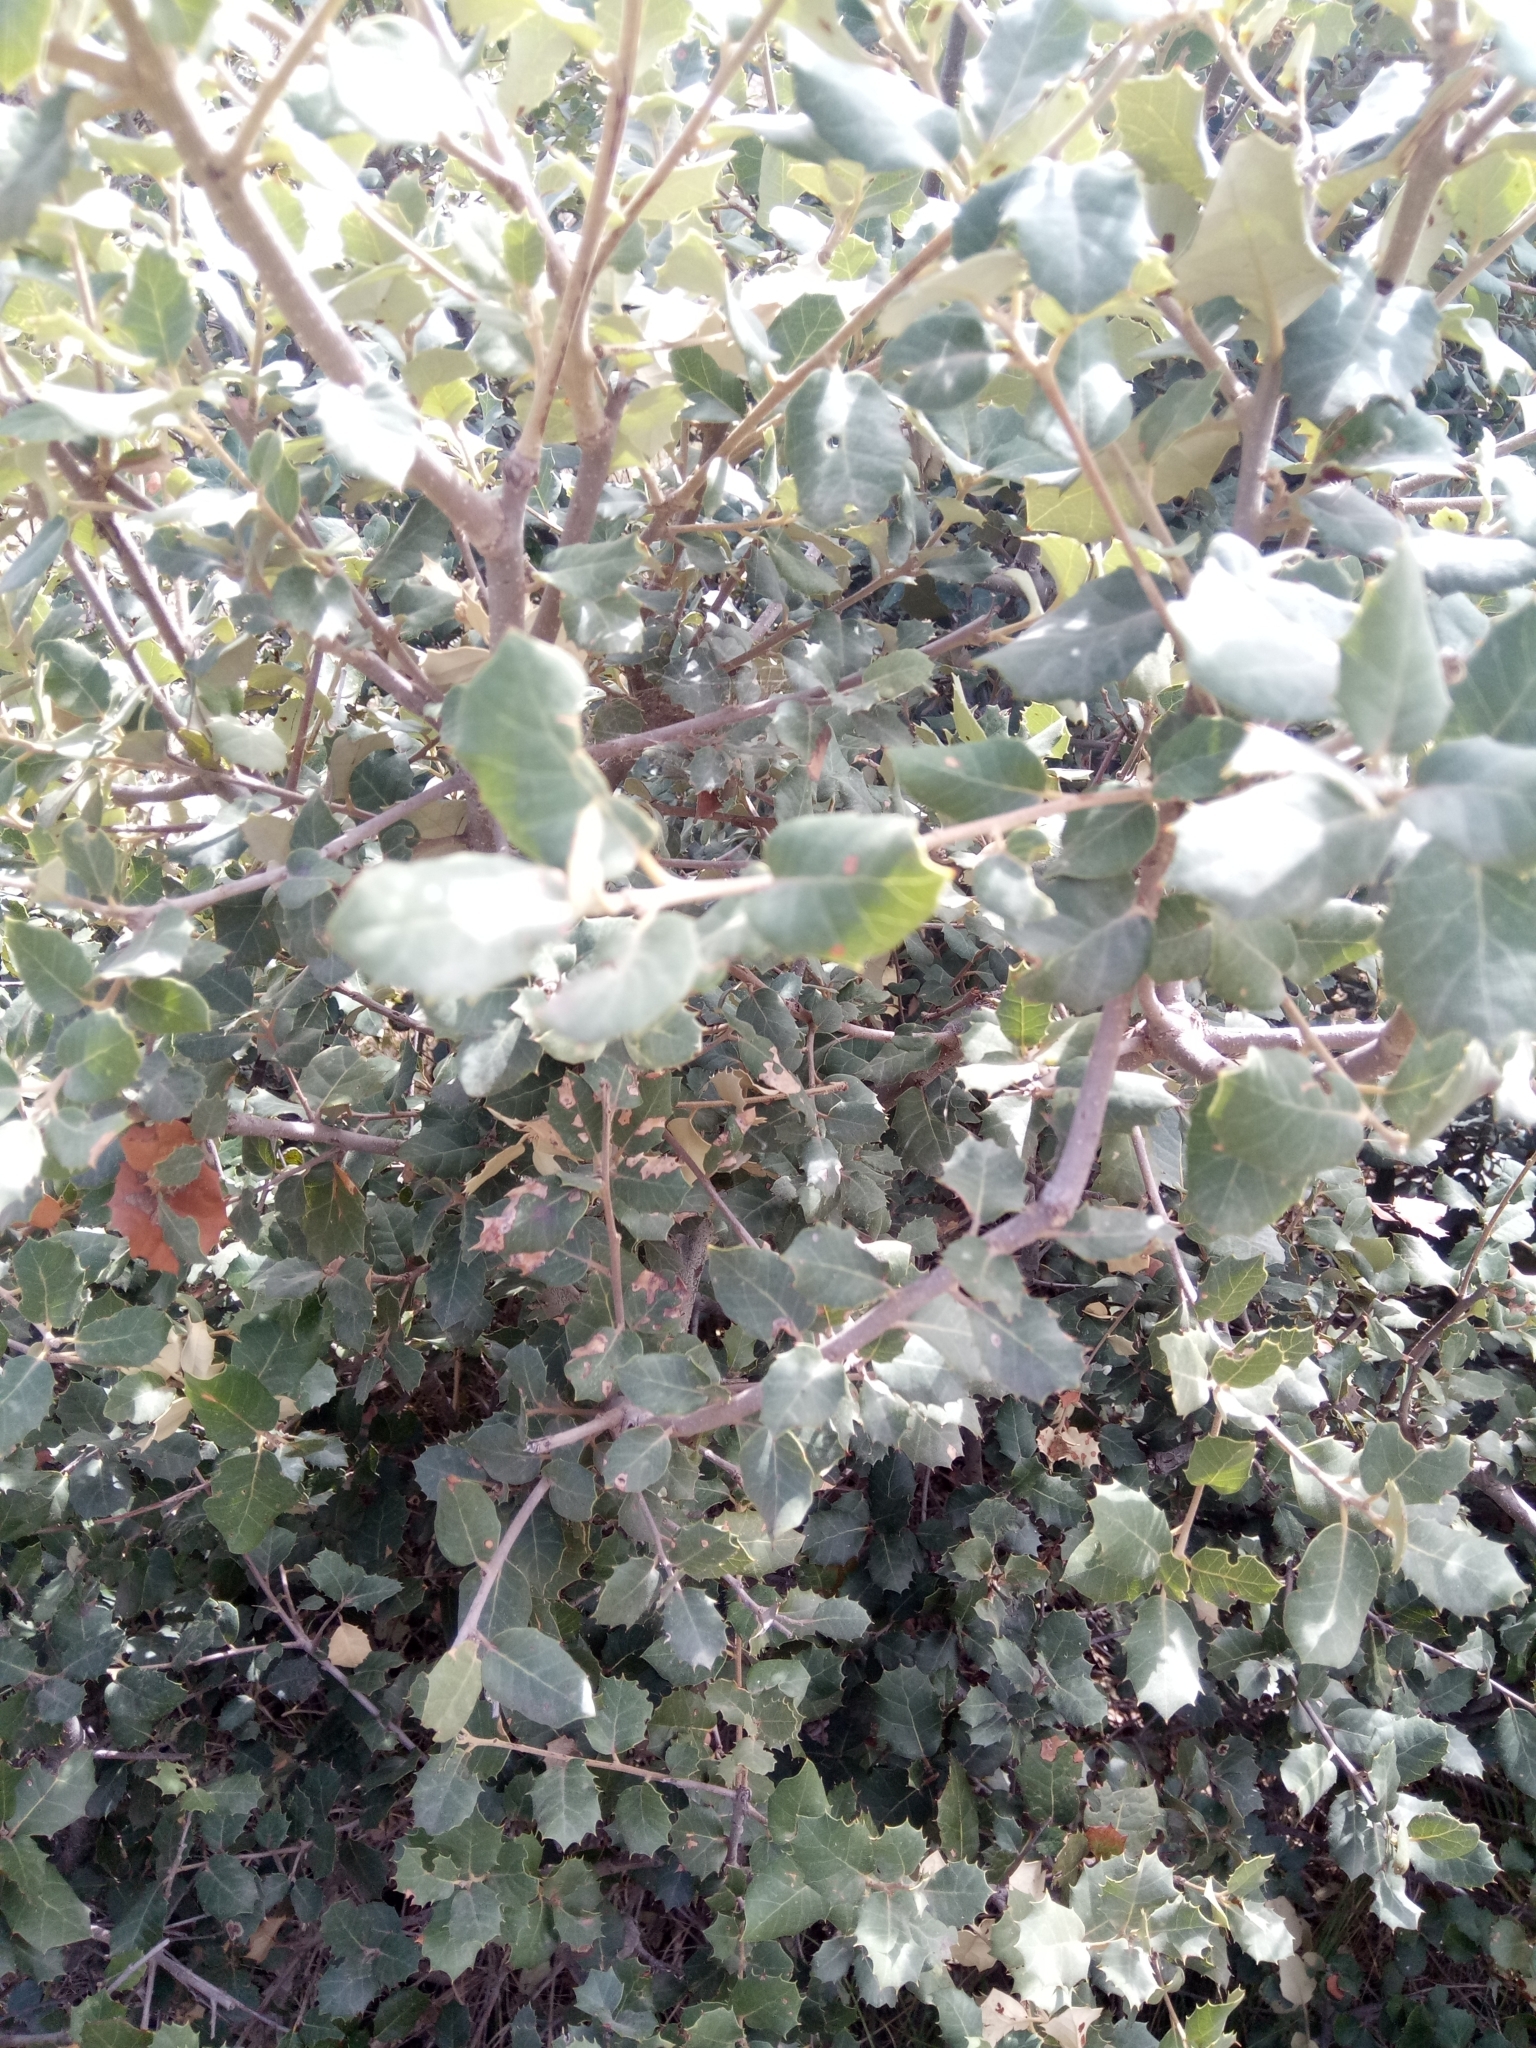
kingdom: Plantae
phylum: Tracheophyta
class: Magnoliopsida
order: Fagales
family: Fagaceae
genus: Quercus
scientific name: Quercus rotundifolia
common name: Holm oak
